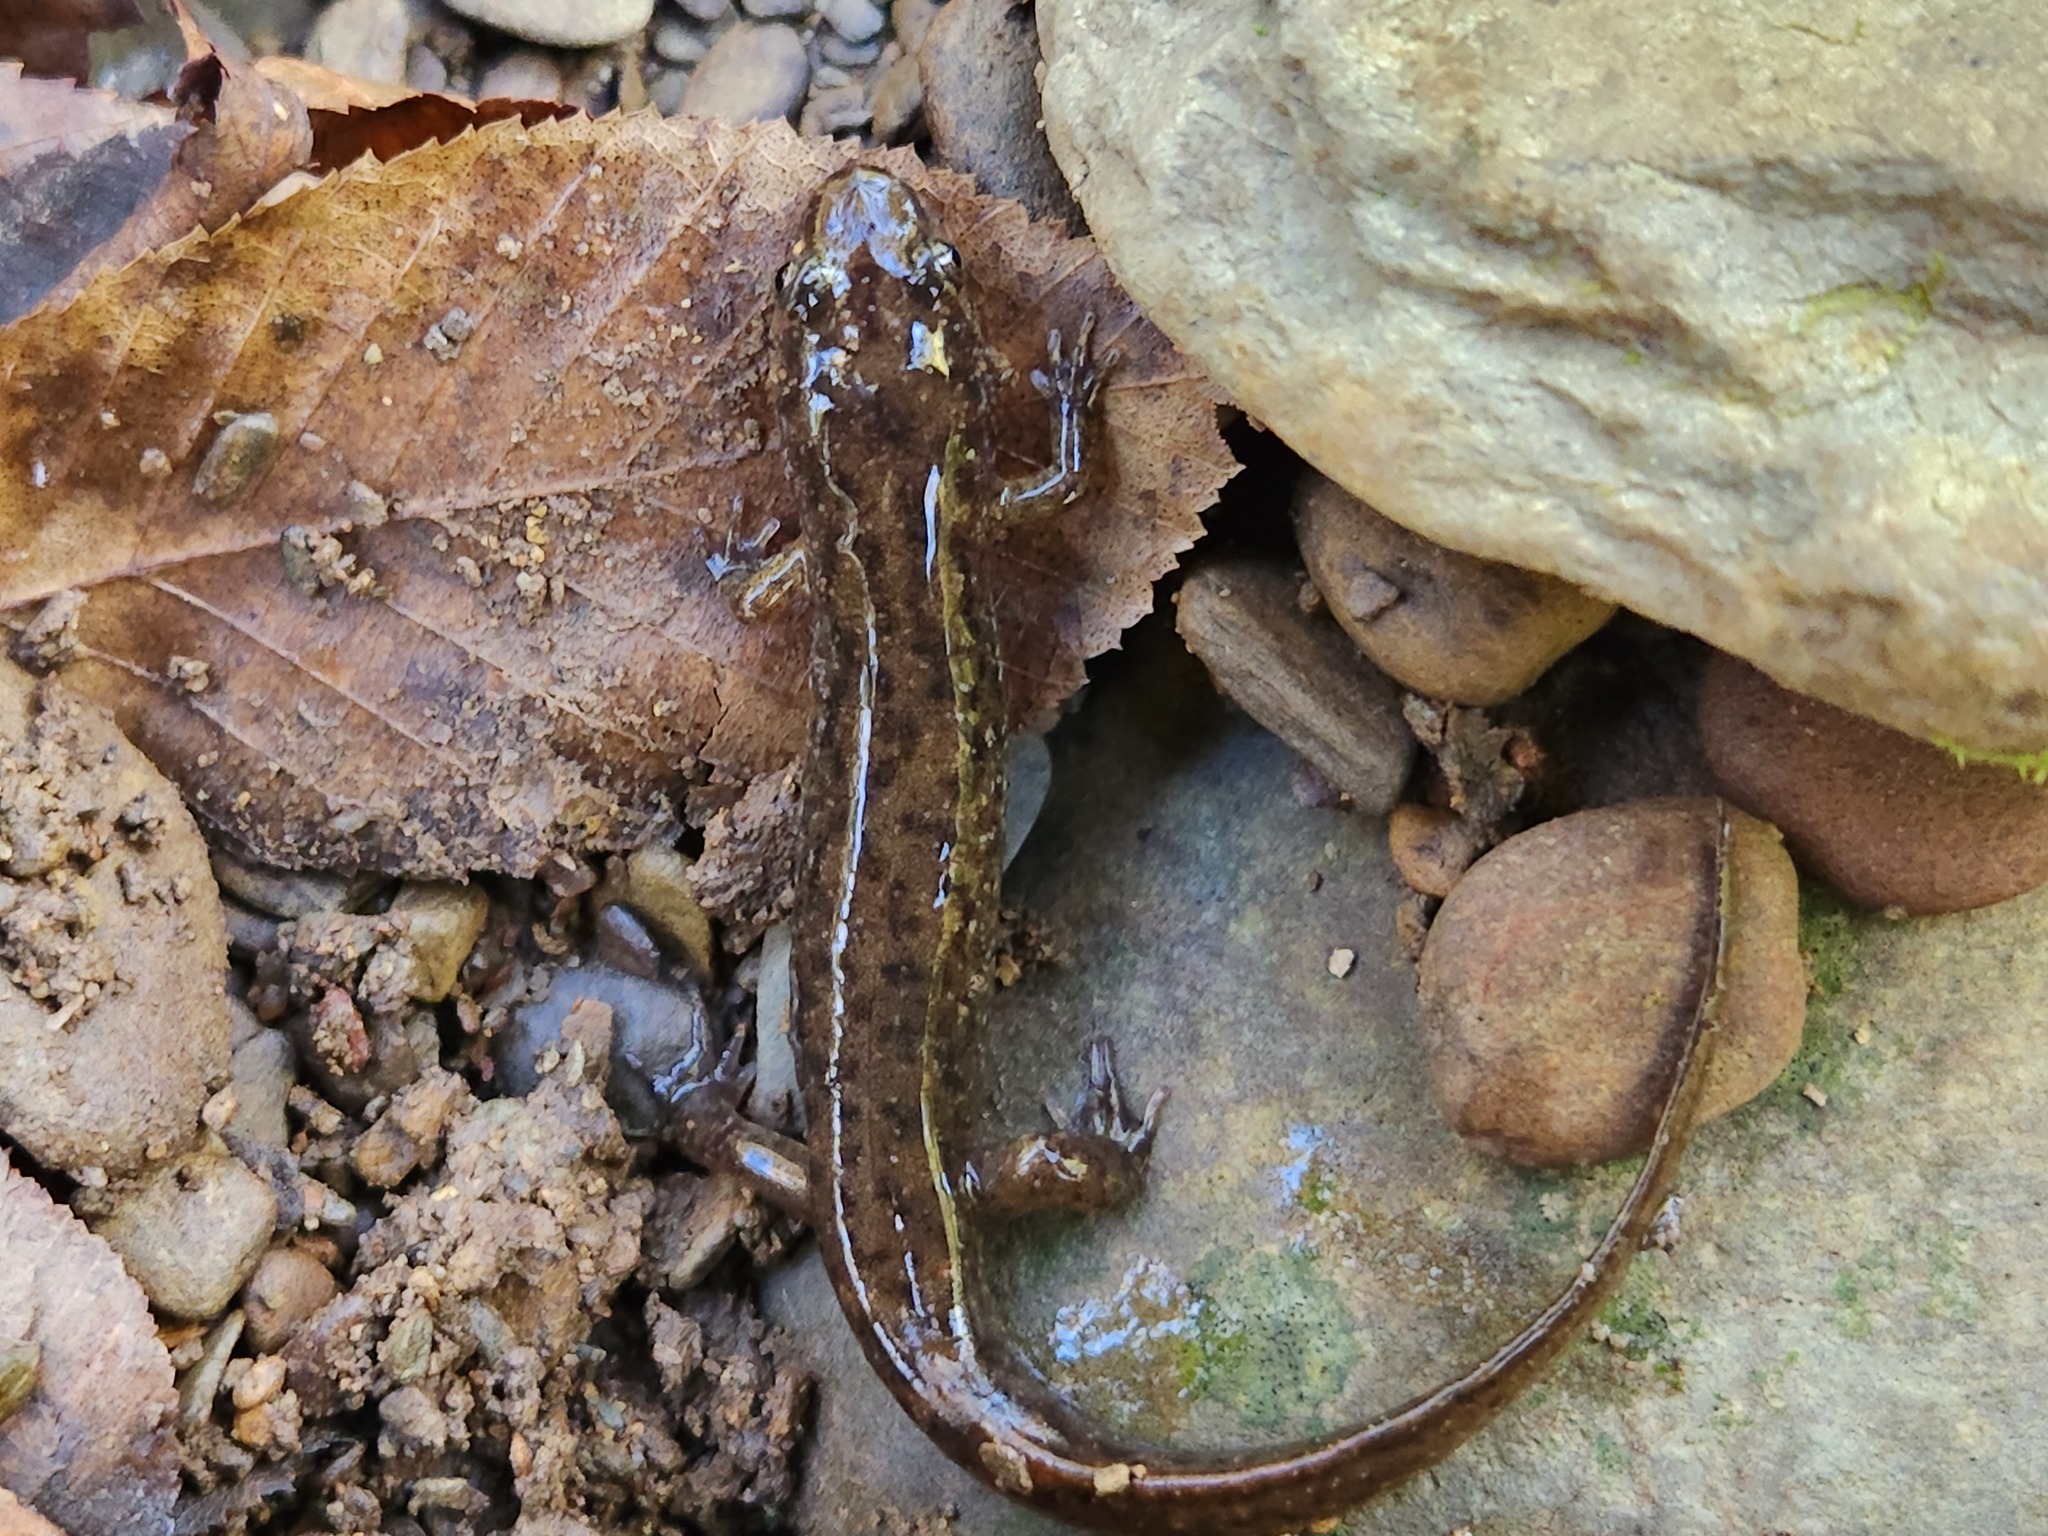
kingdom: Animalia
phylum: Chordata
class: Amphibia
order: Caudata
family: Plethodontidae
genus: Desmognathus
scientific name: Desmognathus monticola
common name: Seal salamander
